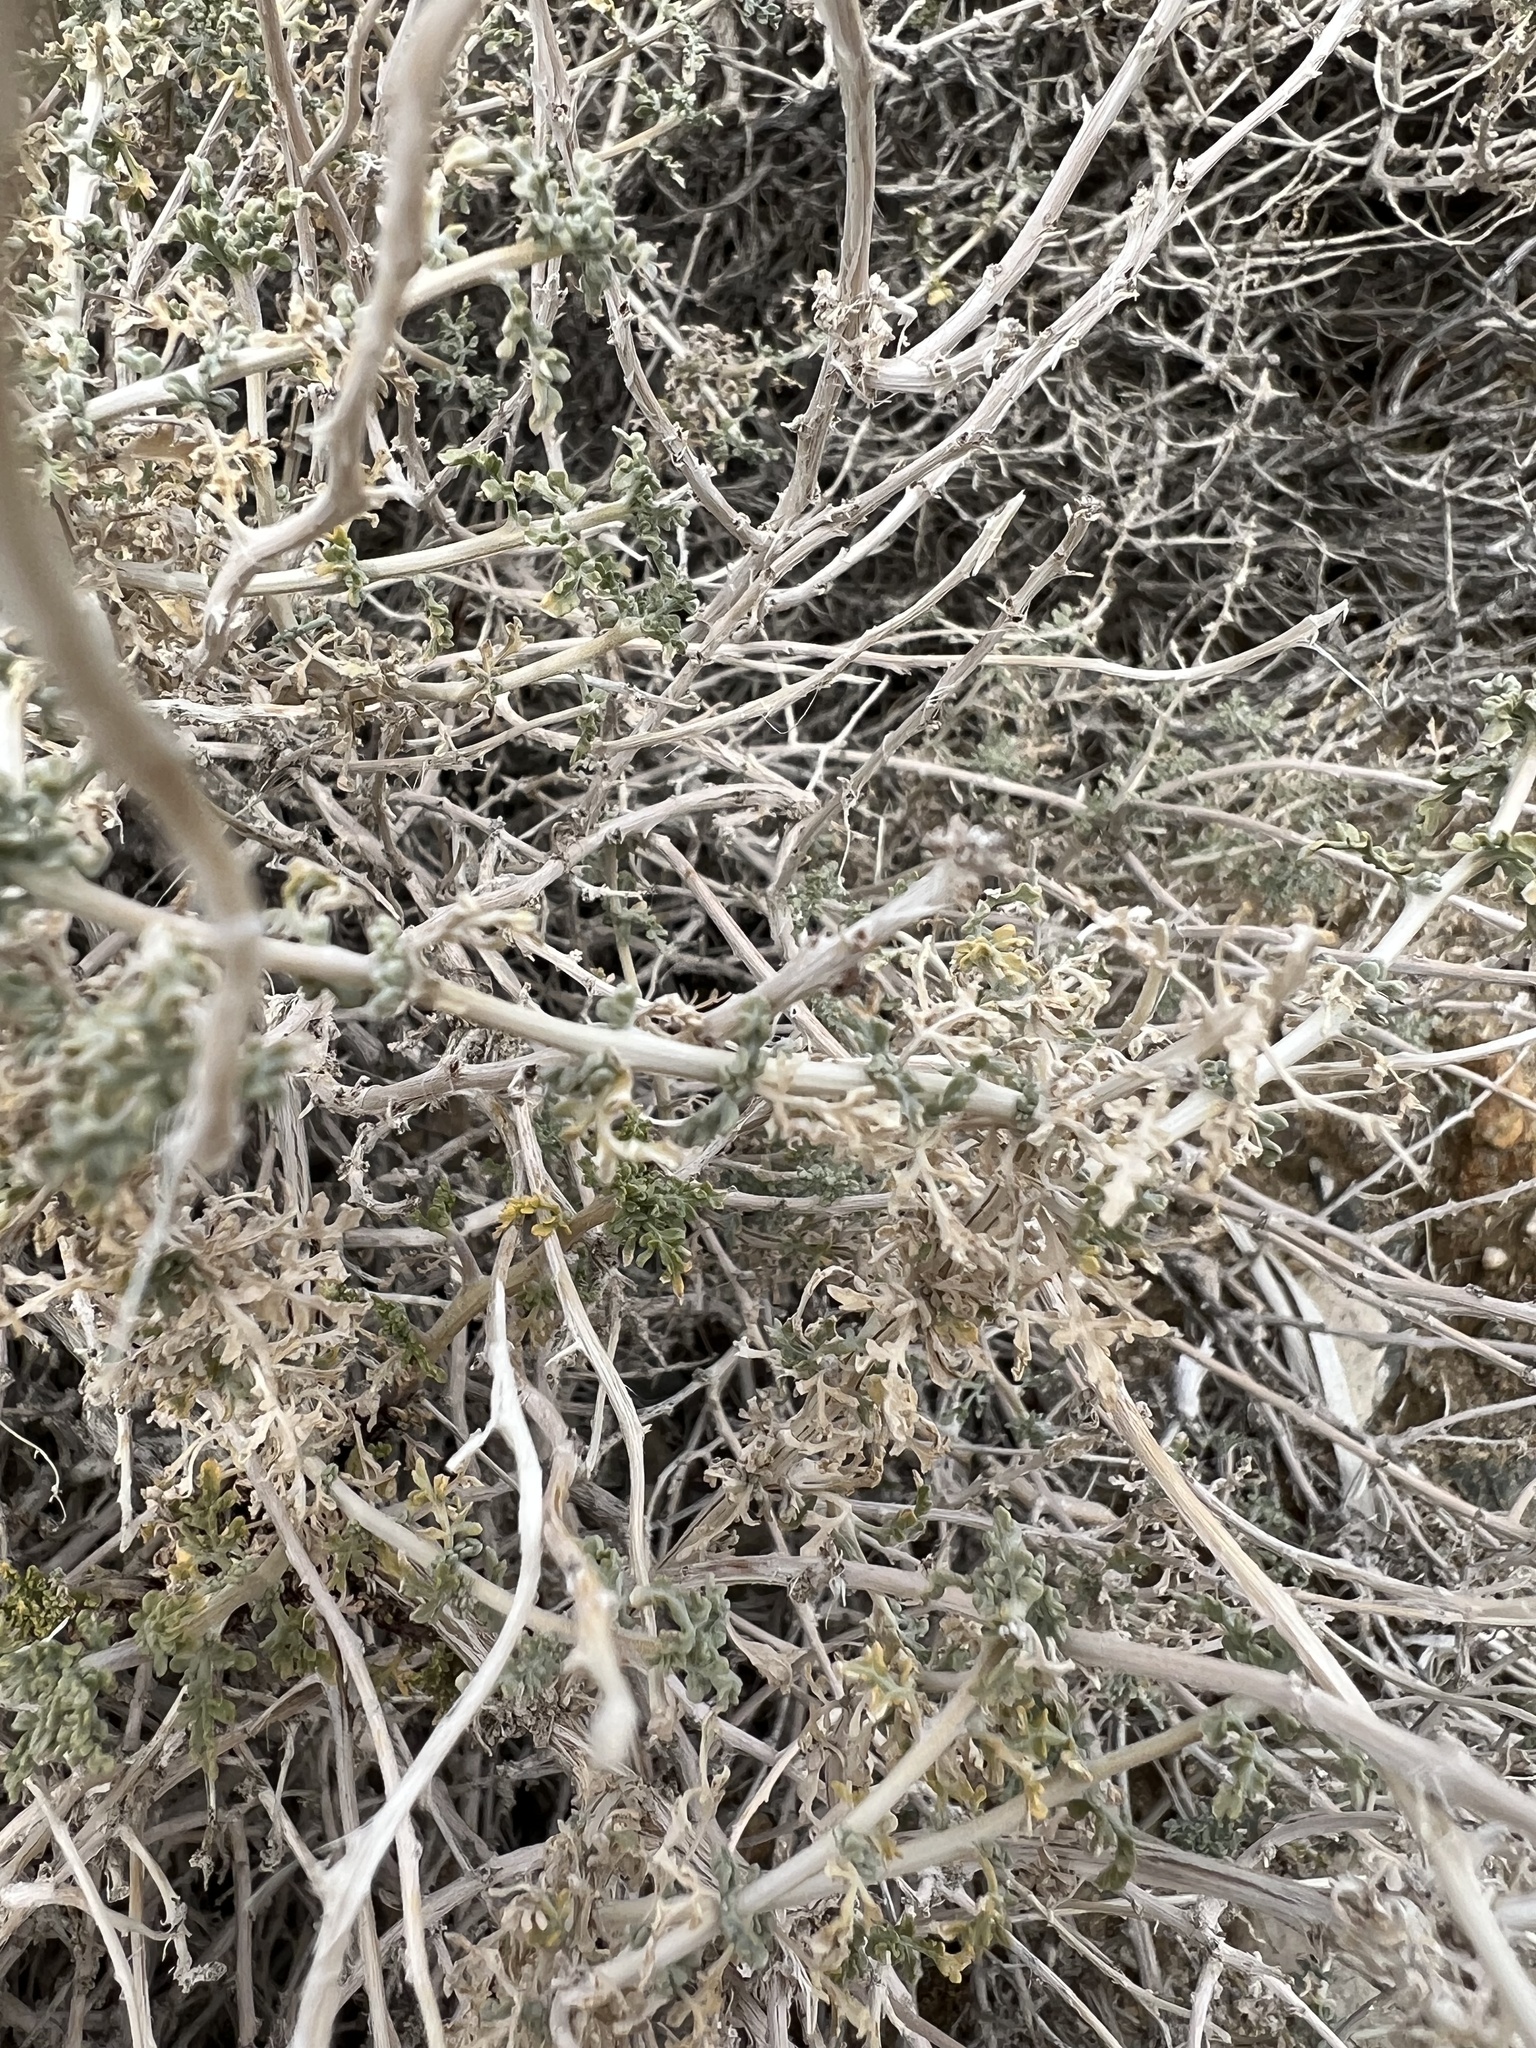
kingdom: Plantae
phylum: Tracheophyta
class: Magnoliopsida
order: Asterales
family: Asteraceae
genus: Ambrosia
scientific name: Ambrosia dumosa
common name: Bur-sage
